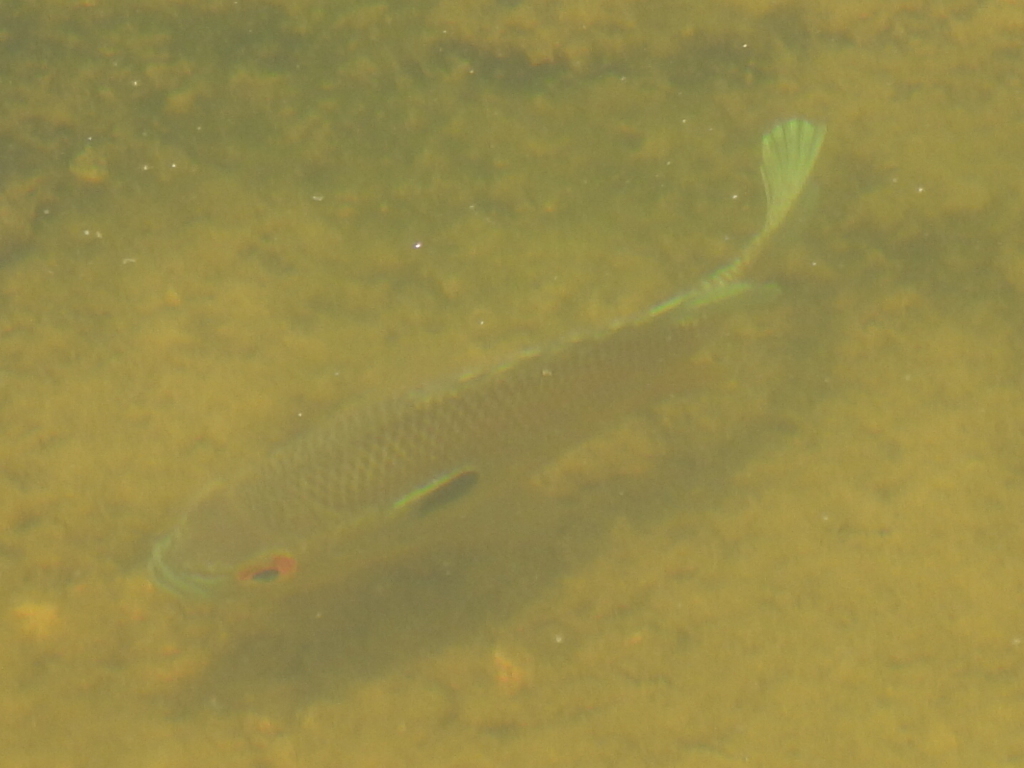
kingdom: Animalia
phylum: Chordata
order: Perciformes
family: Centrarchidae
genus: Lepomis
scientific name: Lepomis aquilensis
